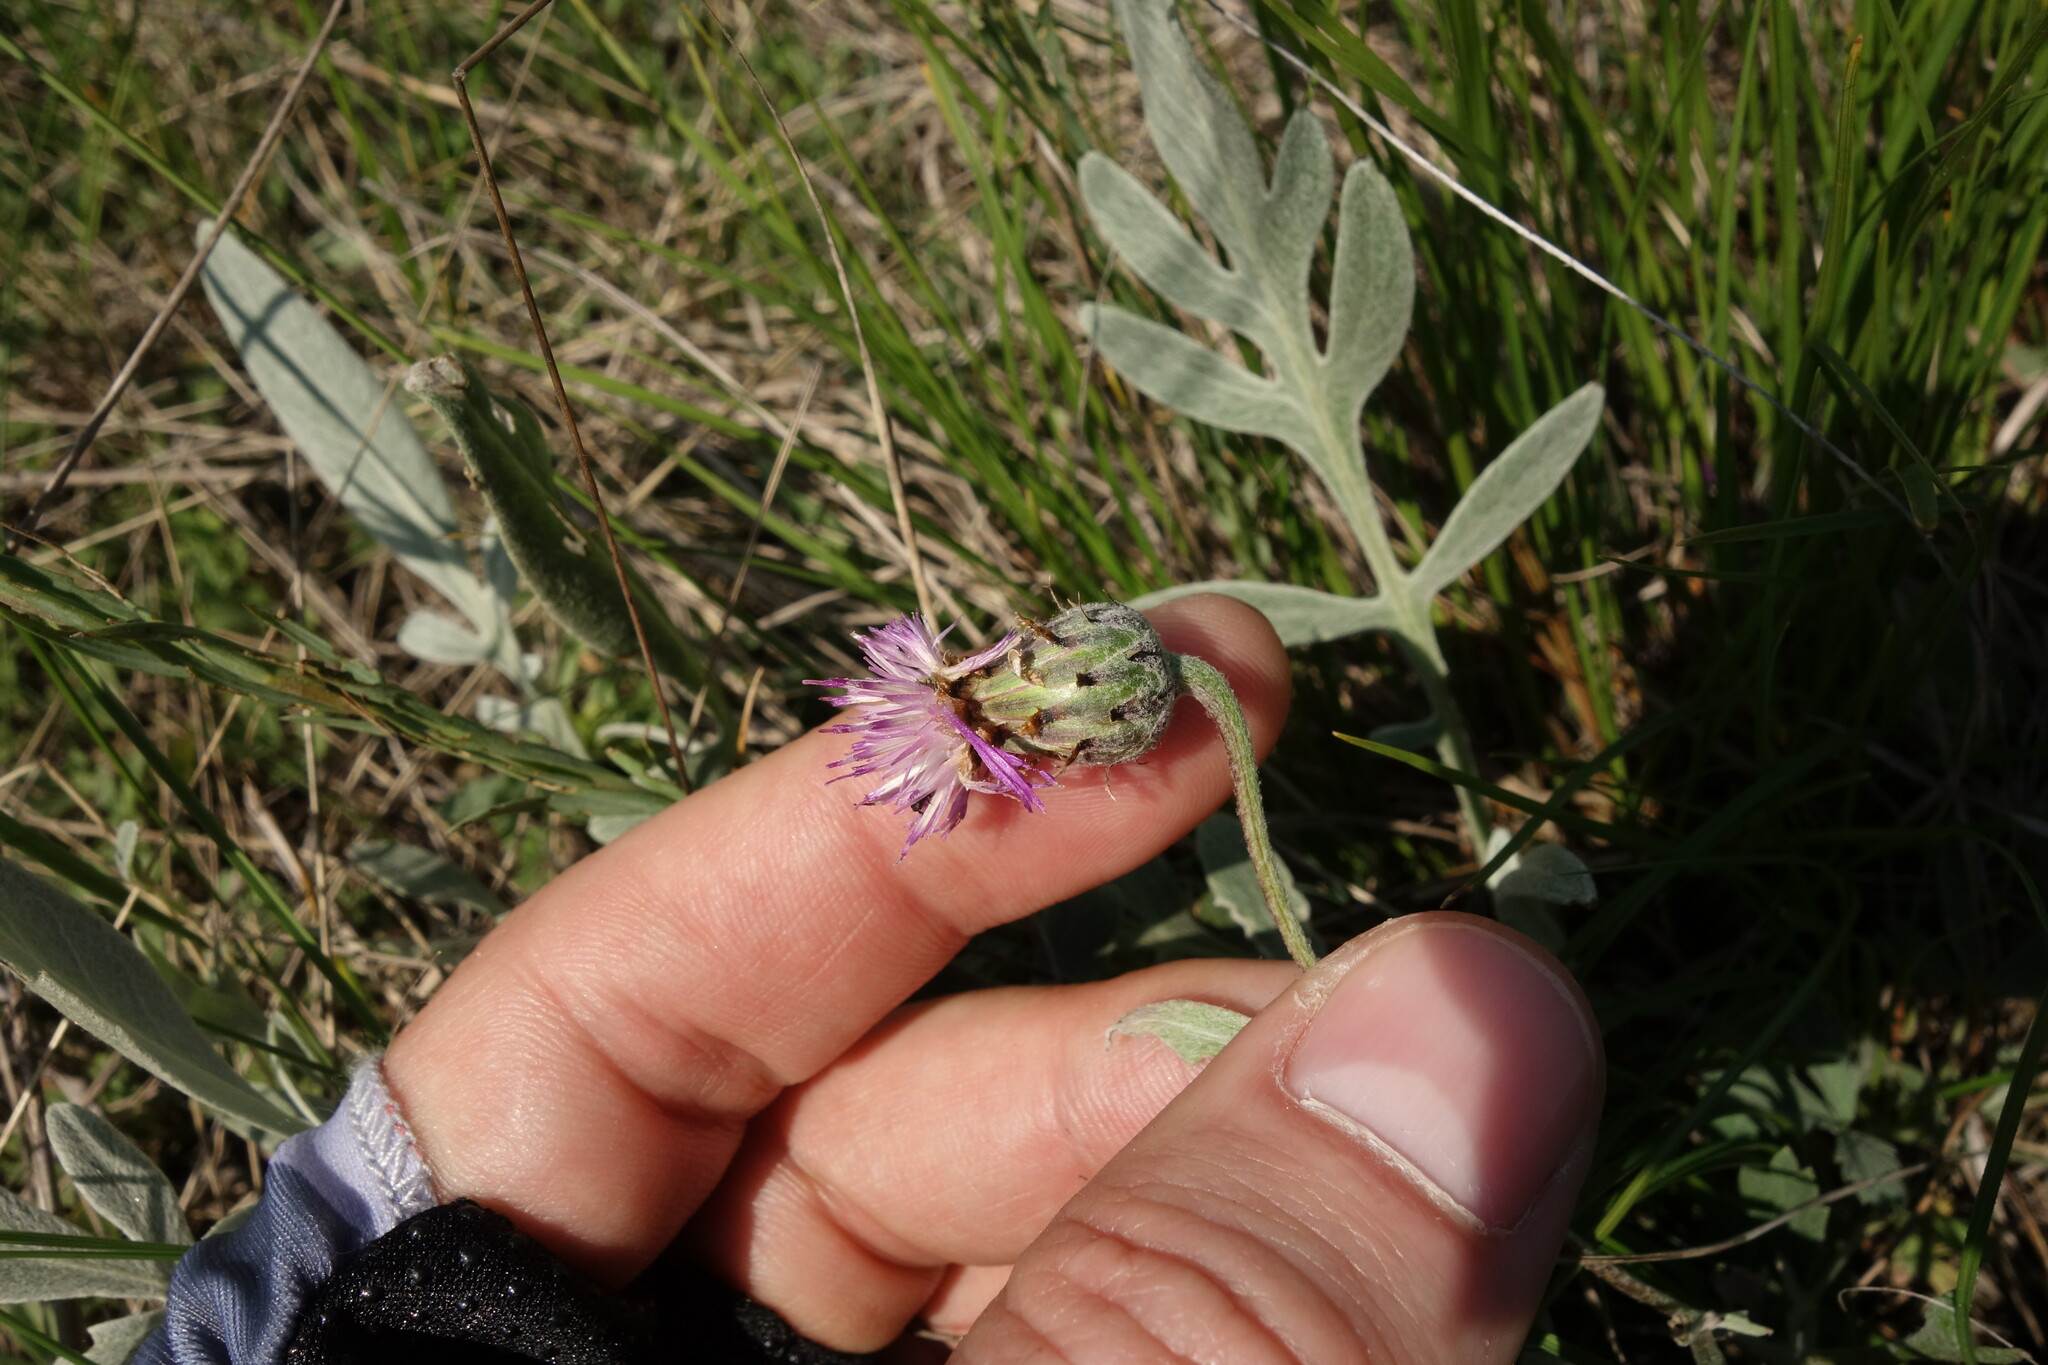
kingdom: Plantae
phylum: Tracheophyta
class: Magnoliopsida
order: Asterales
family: Asteraceae
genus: Psephellus
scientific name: Psephellus sumensis
